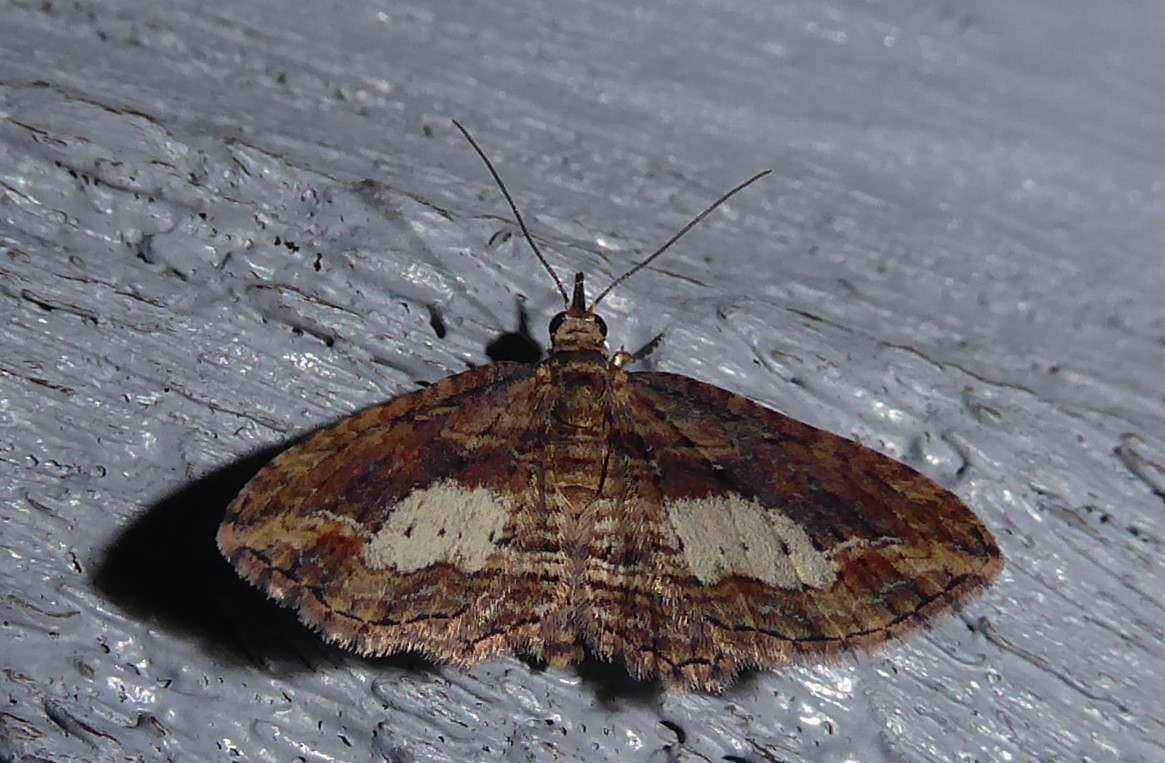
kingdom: Animalia
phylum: Arthropoda
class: Insecta
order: Lepidoptera
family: Geometridae
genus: Chloroclystis
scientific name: Chloroclystis filata
